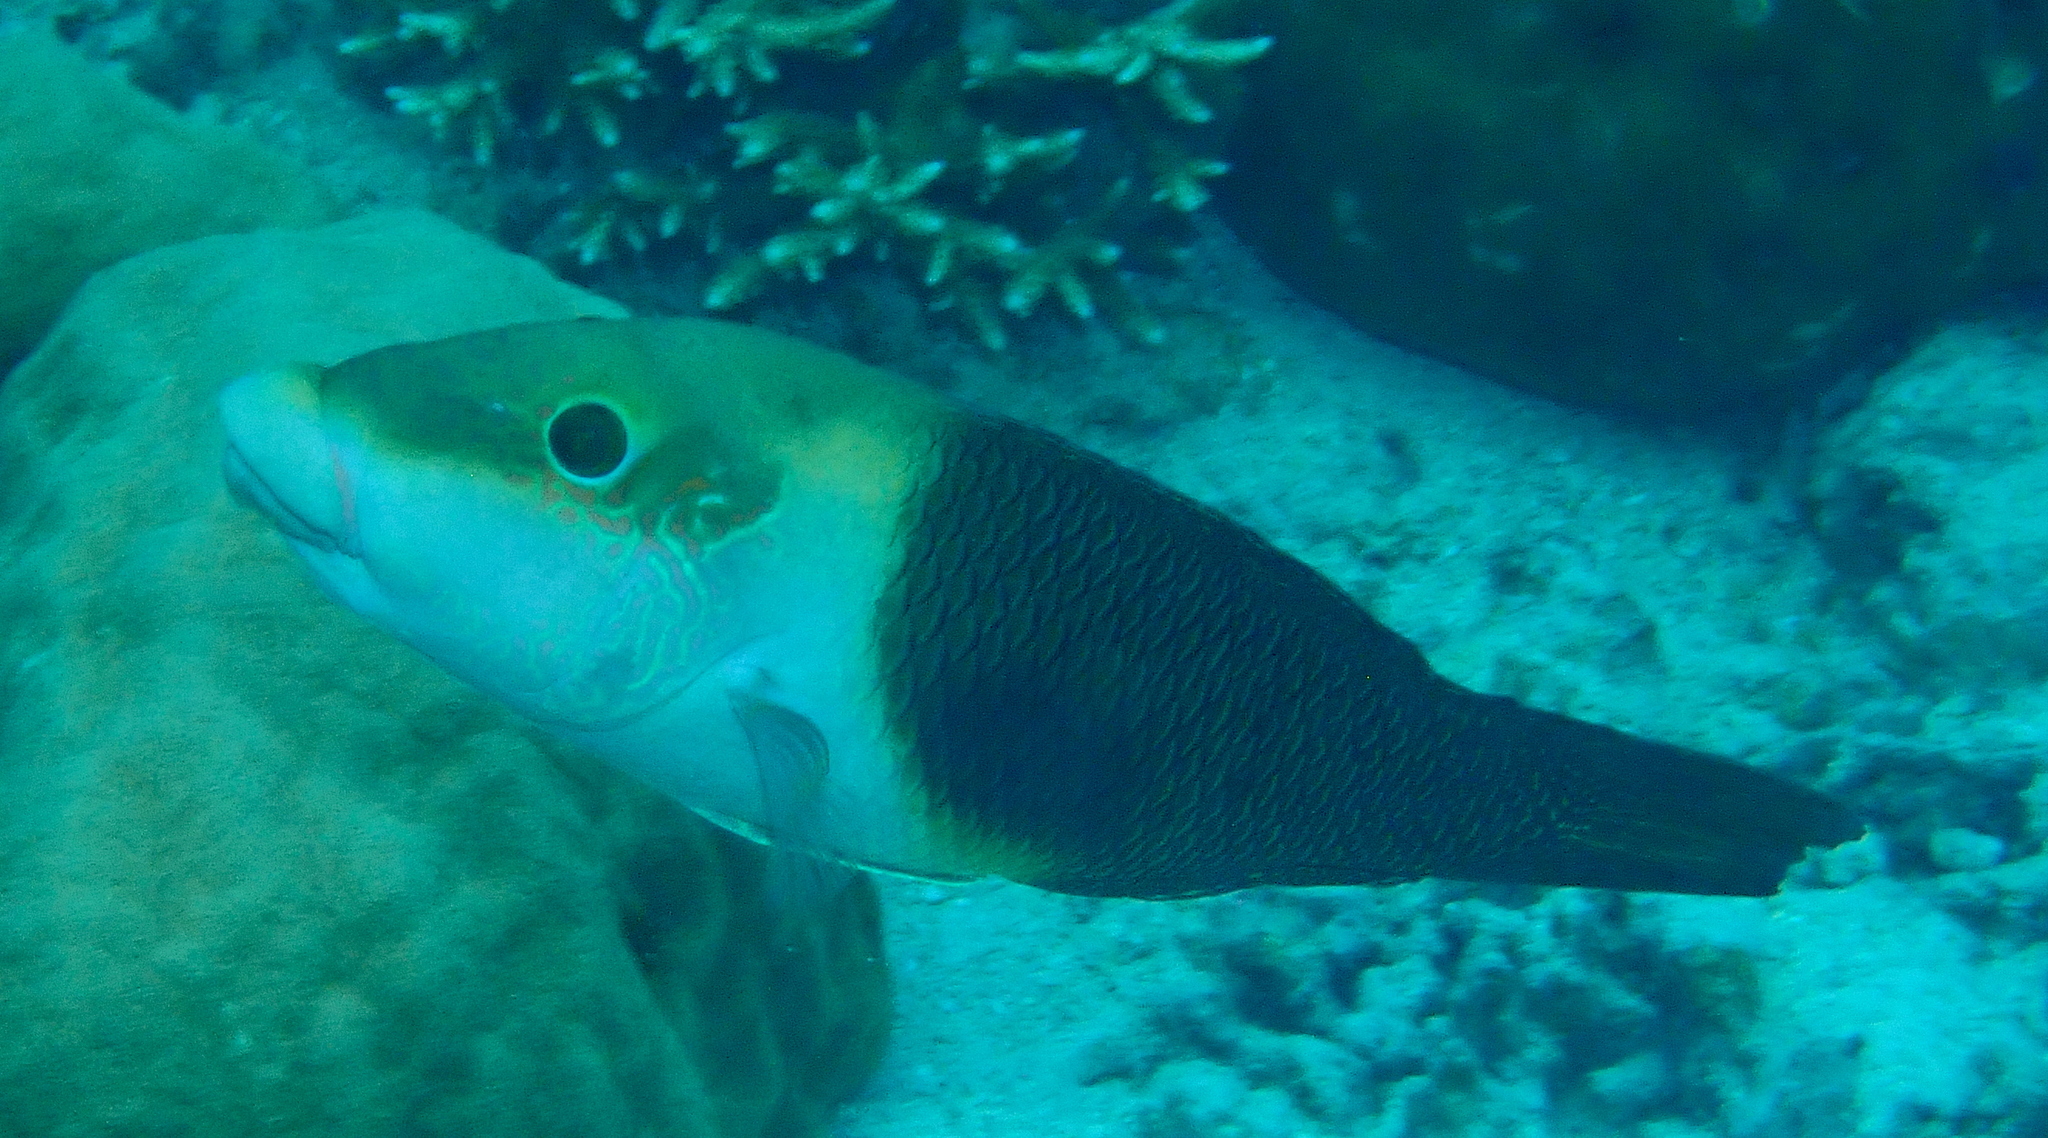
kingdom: Animalia
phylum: Chordata
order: Perciformes
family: Labridae
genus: Hemigymnus
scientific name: Hemigymnus melapterus
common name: Blackeye thicklip
